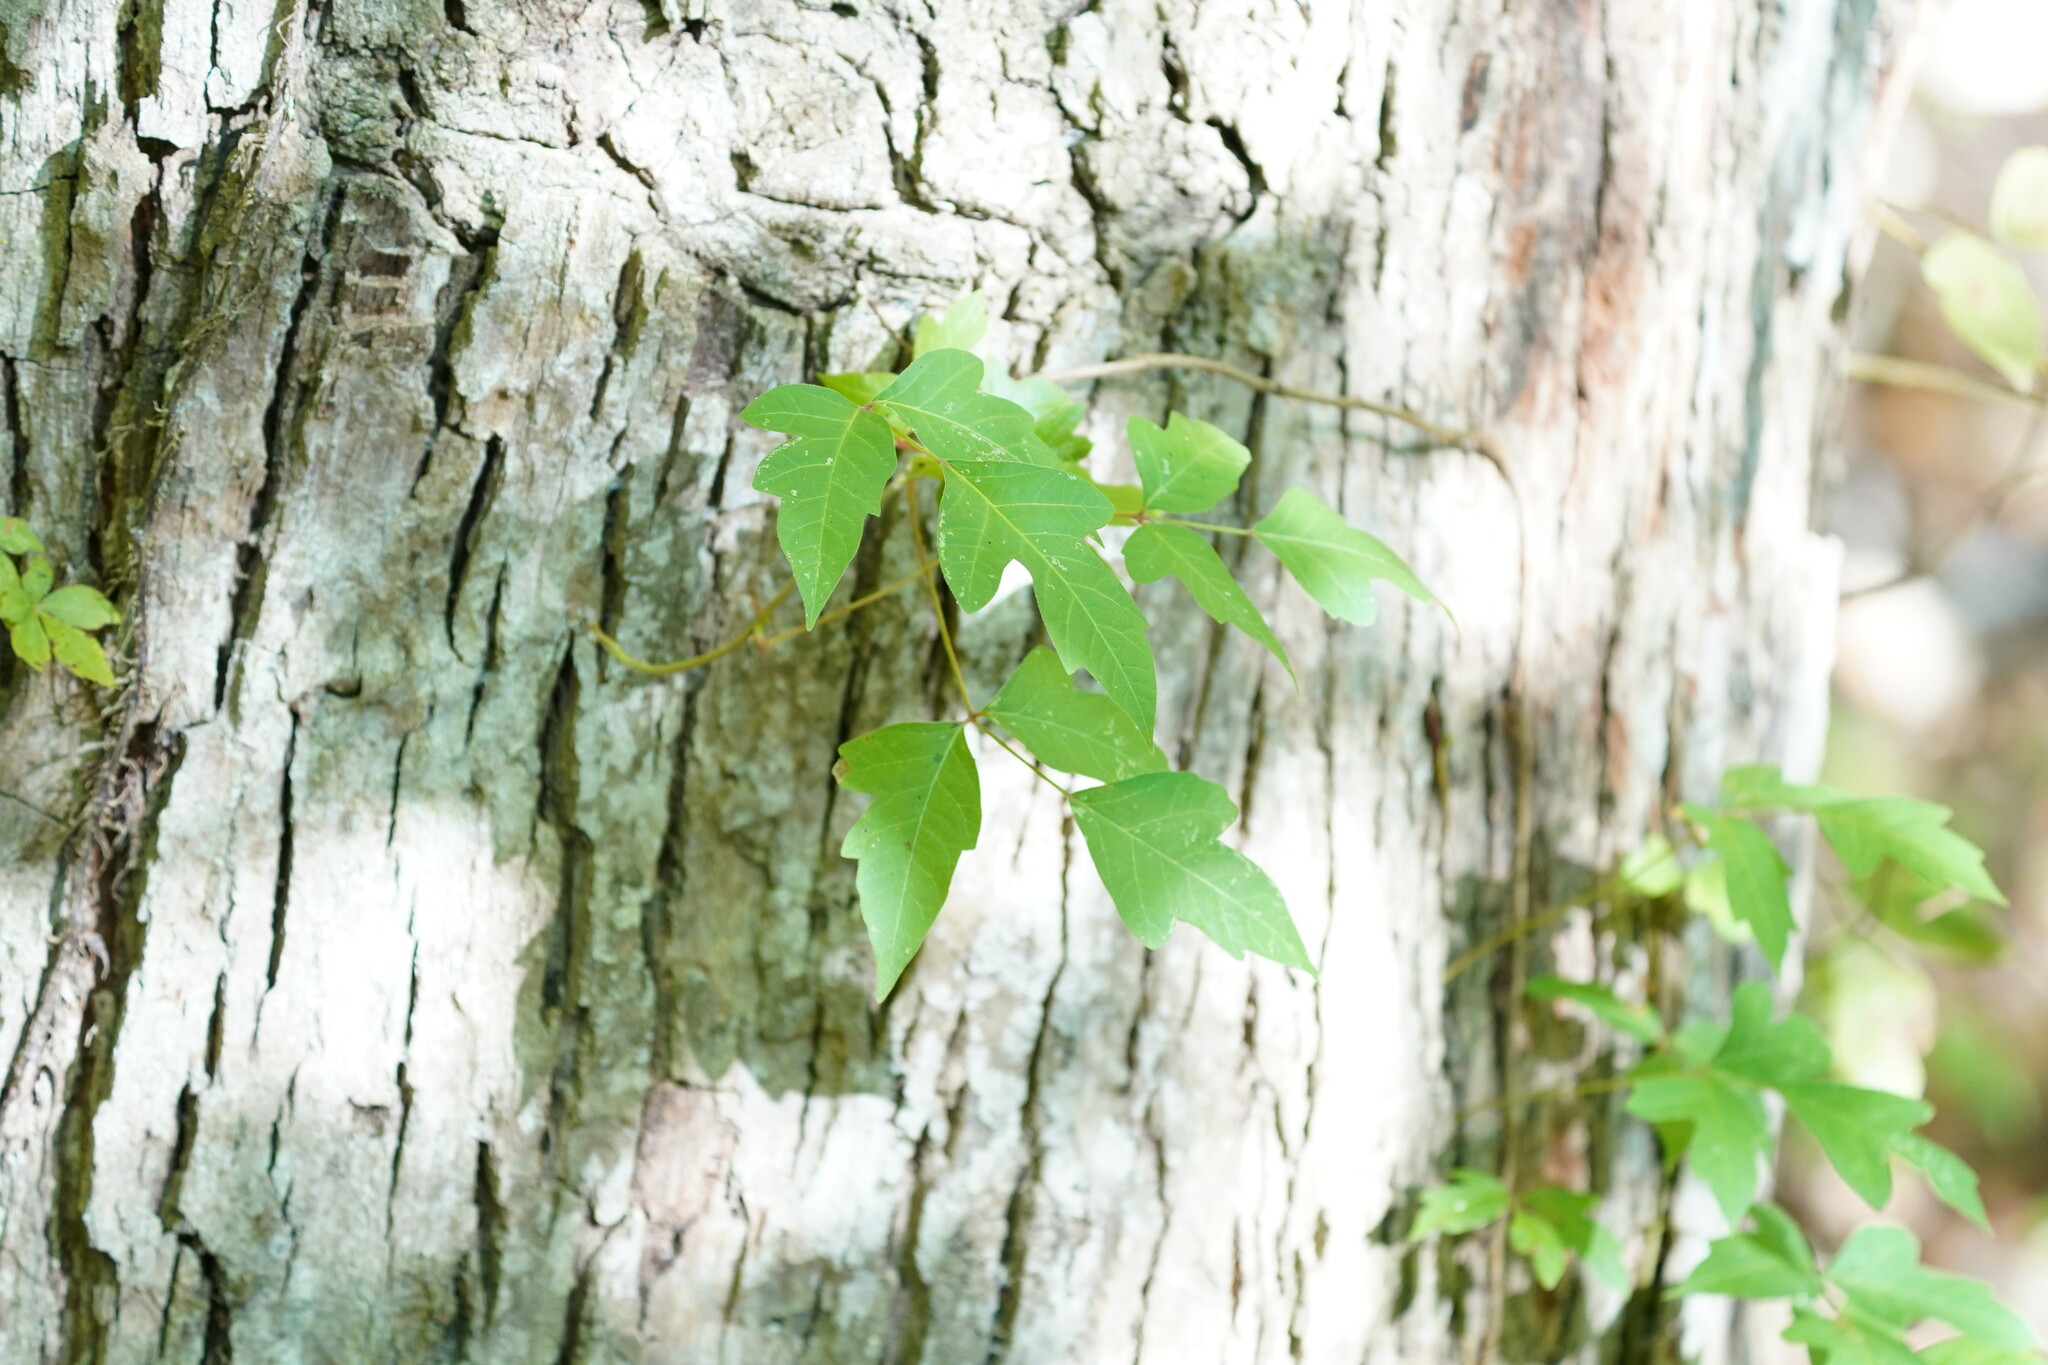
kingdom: Plantae
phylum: Tracheophyta
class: Magnoliopsida
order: Sapindales
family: Anacardiaceae
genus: Toxicodendron
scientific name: Toxicodendron radicans
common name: Poison ivy
